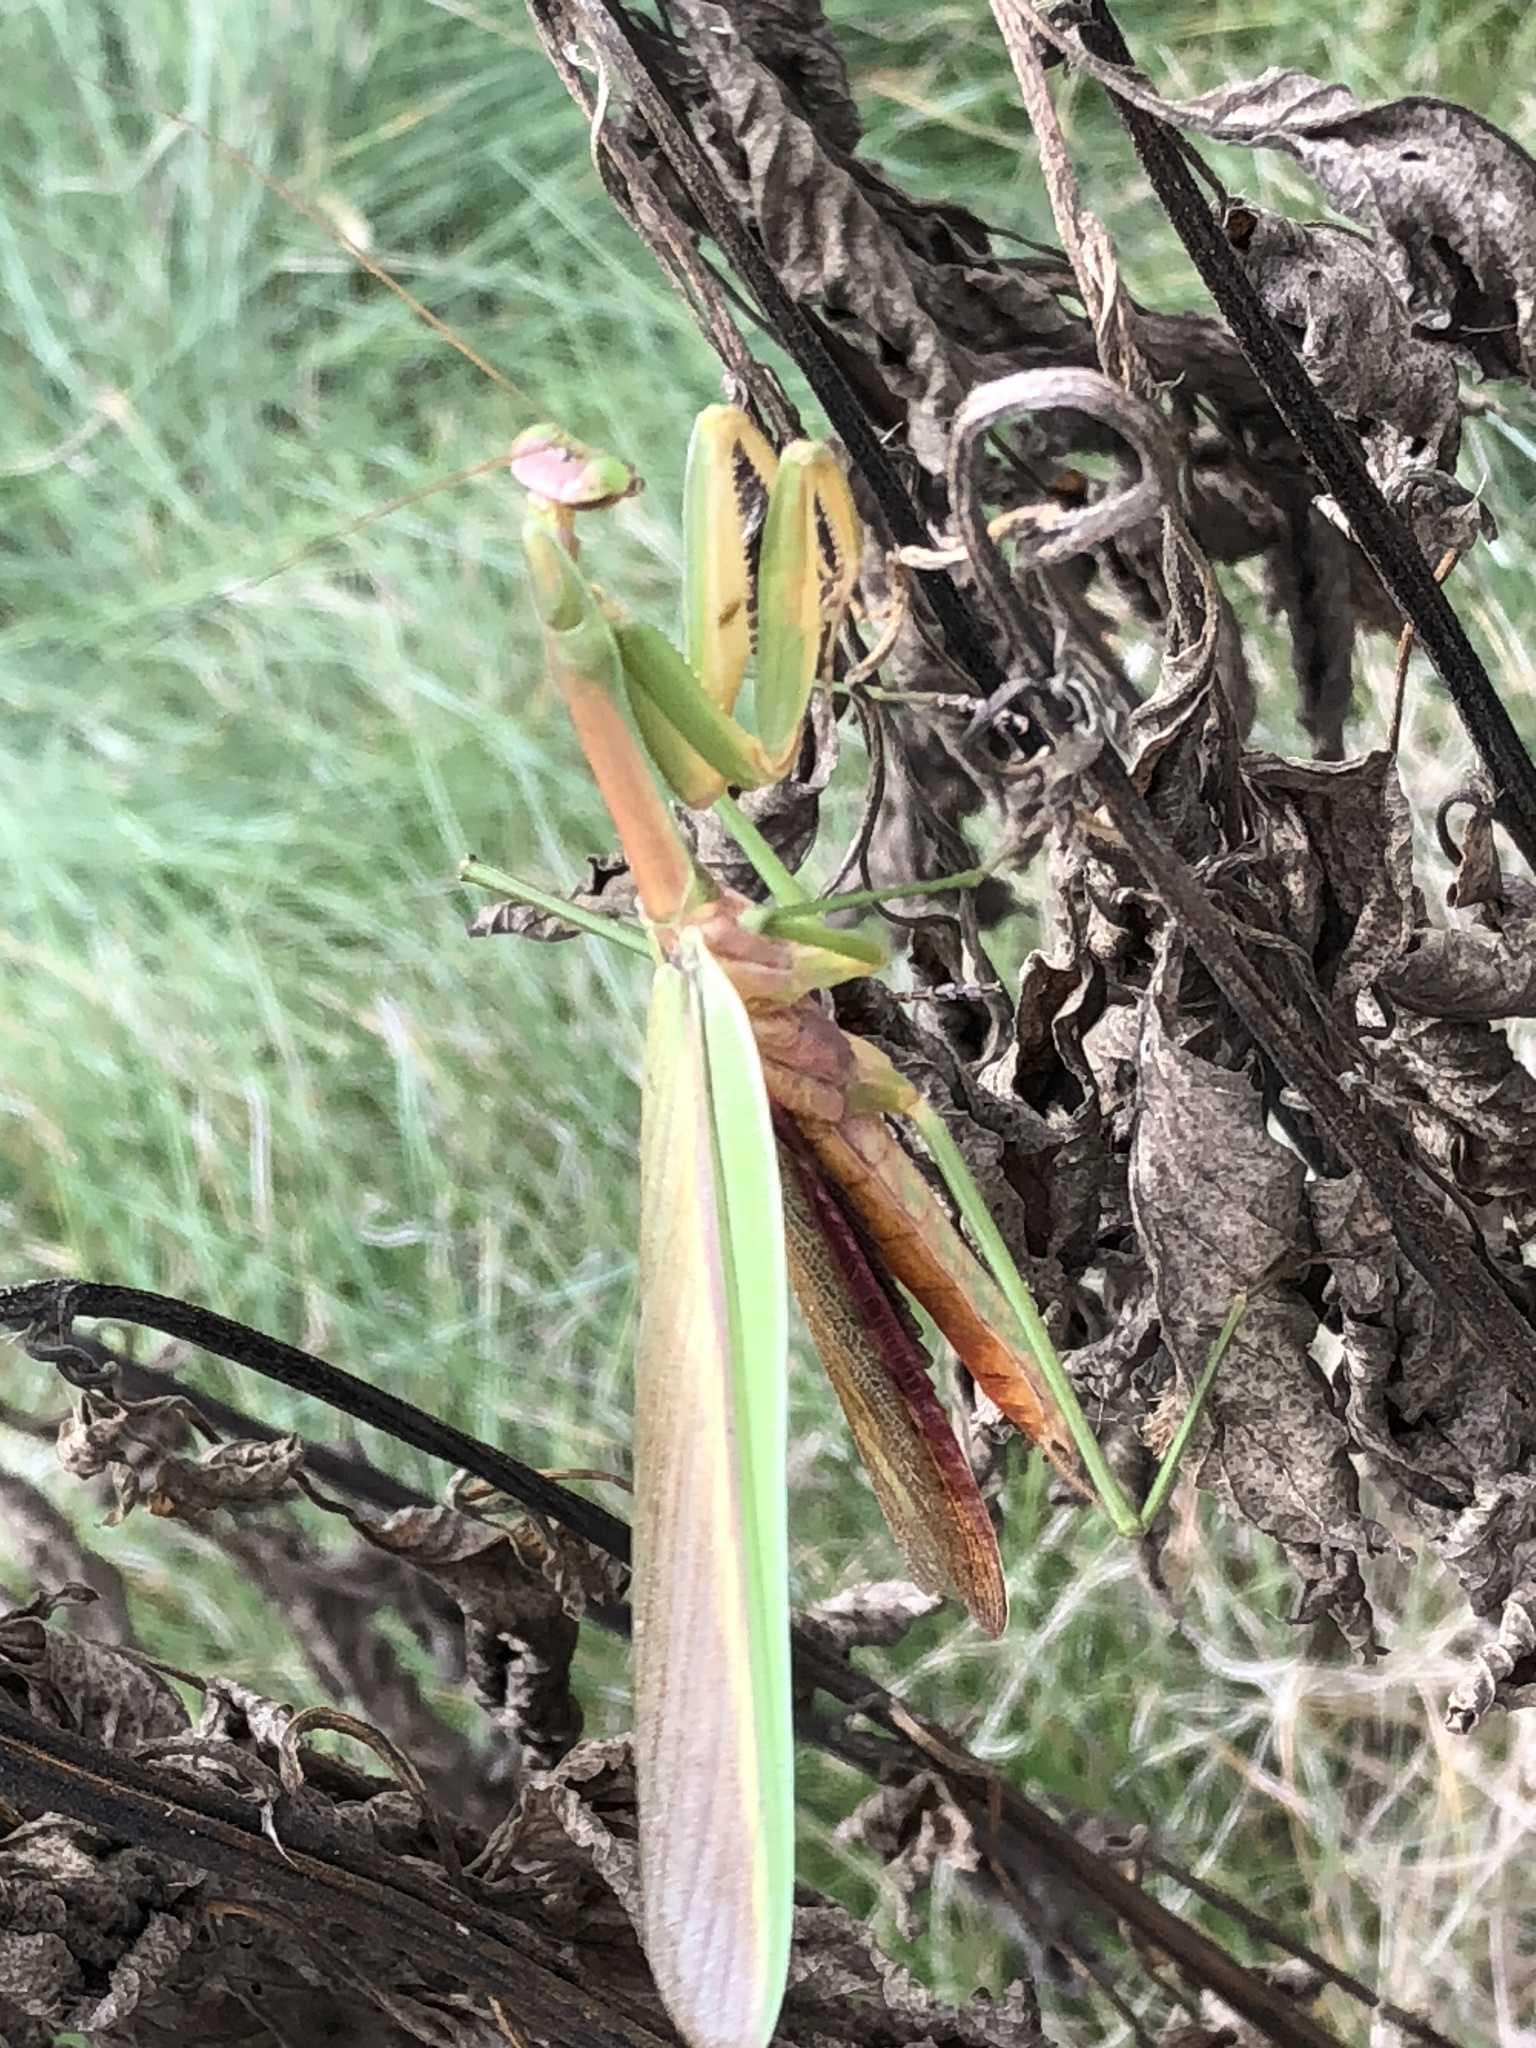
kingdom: Animalia
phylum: Arthropoda
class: Insecta
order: Mantodea
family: Mantidae
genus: Tenodera
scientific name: Tenodera sinensis
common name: Chinese mantis
